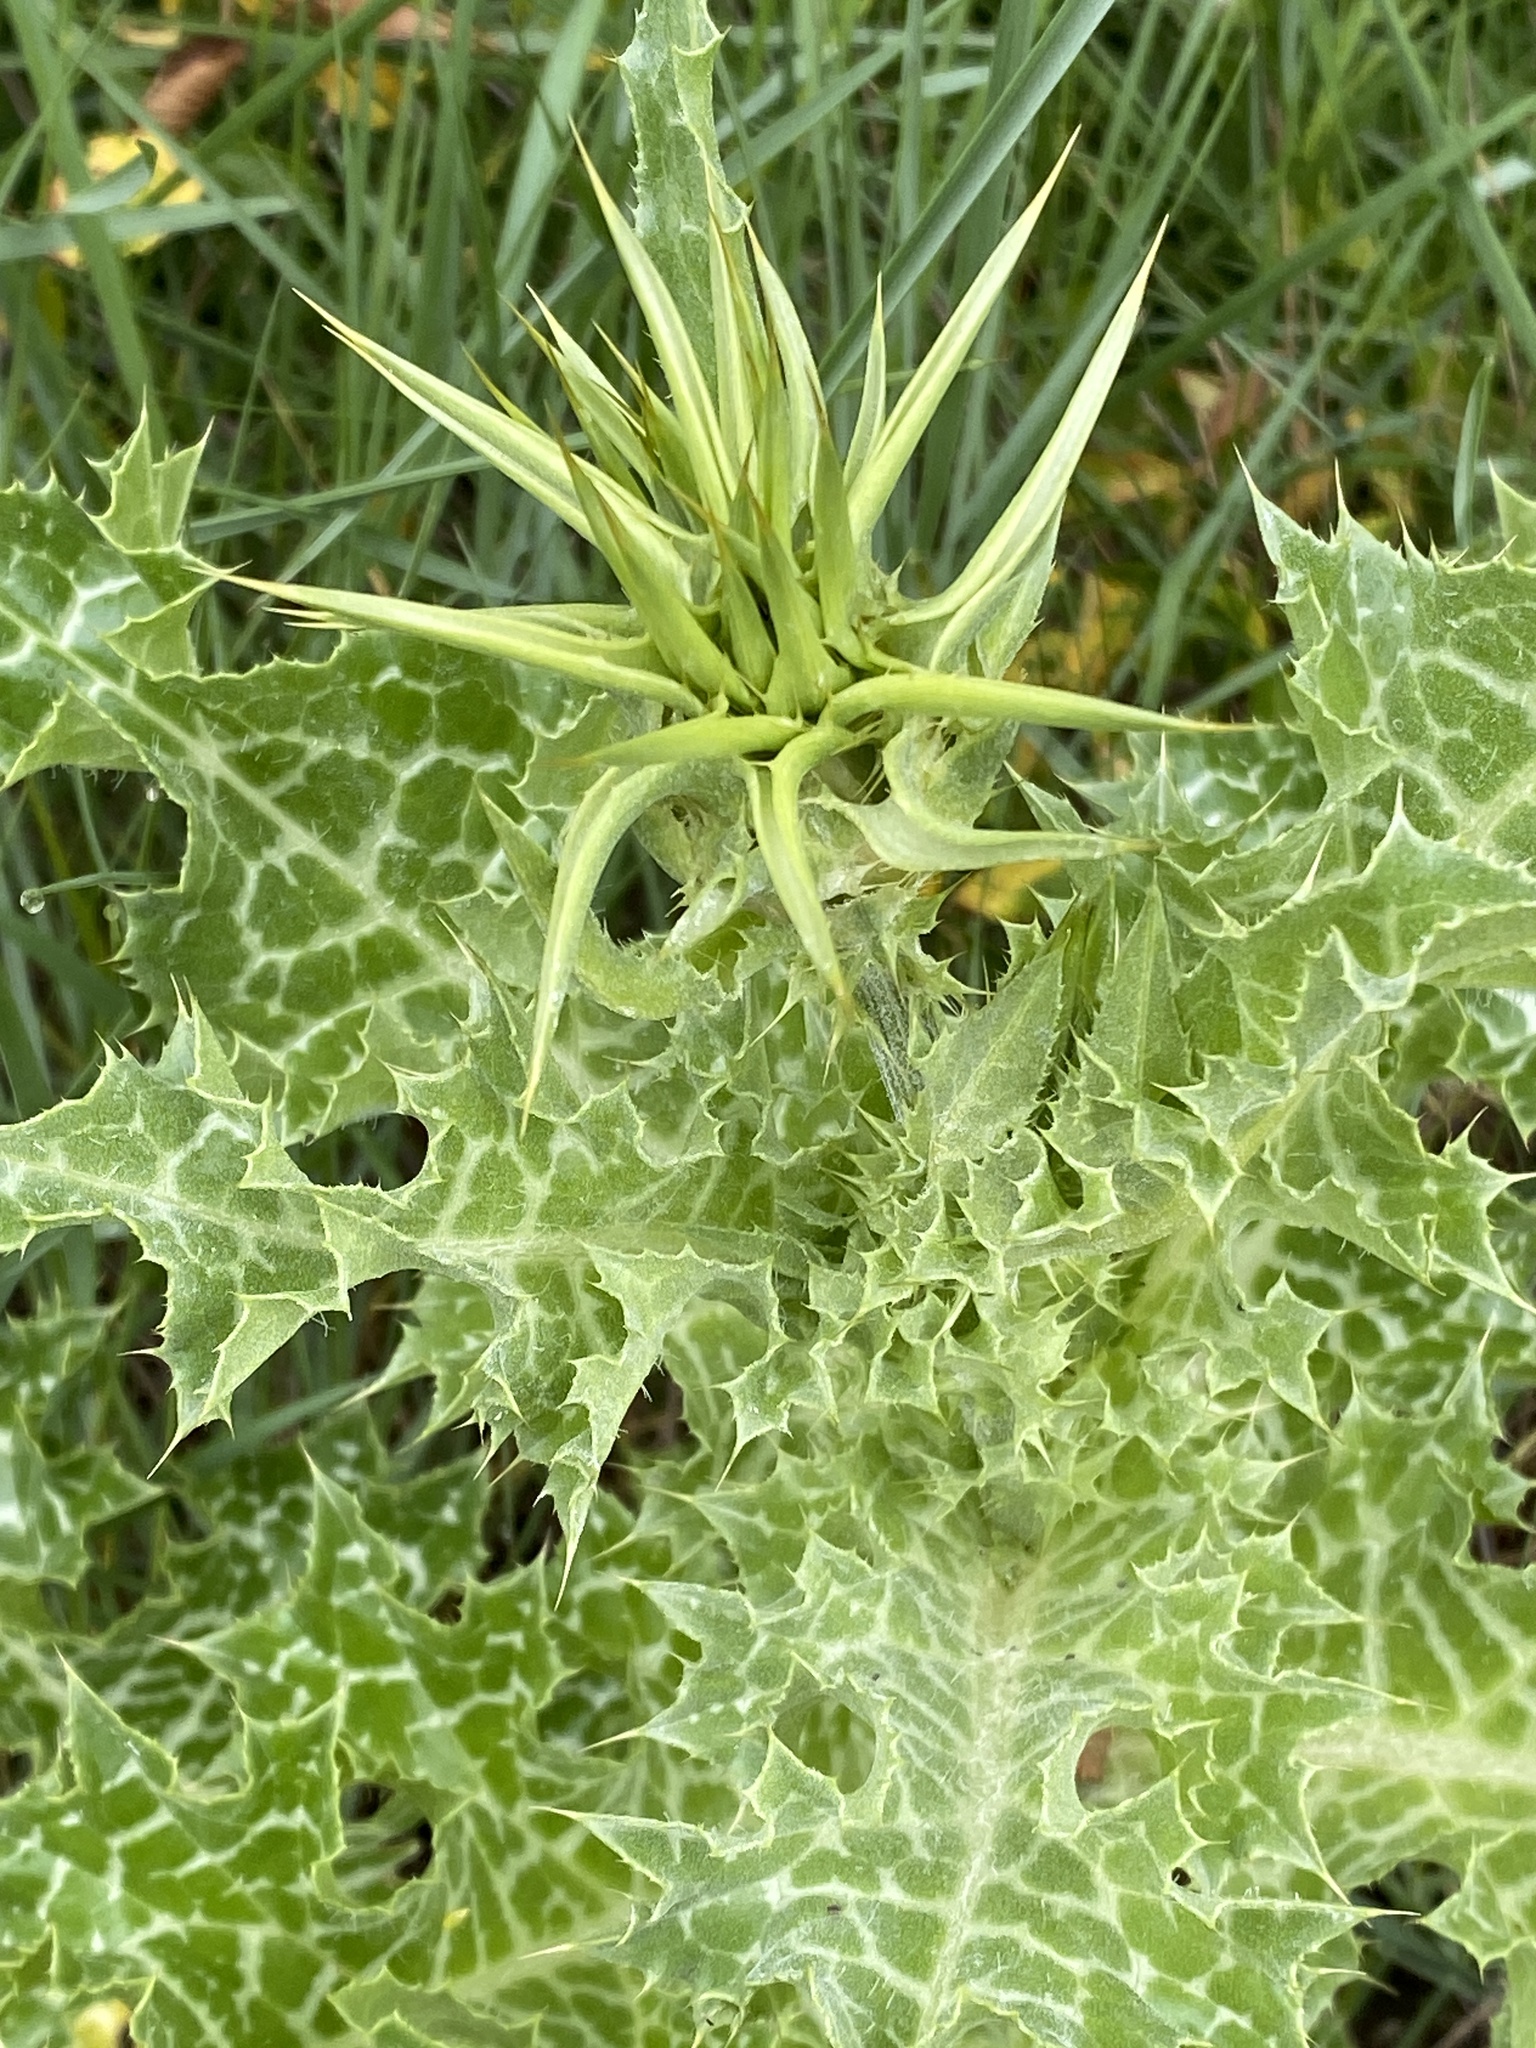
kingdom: Plantae
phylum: Tracheophyta
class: Magnoliopsida
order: Asterales
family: Asteraceae
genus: Silybum
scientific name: Silybum marianum
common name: Milk thistle
